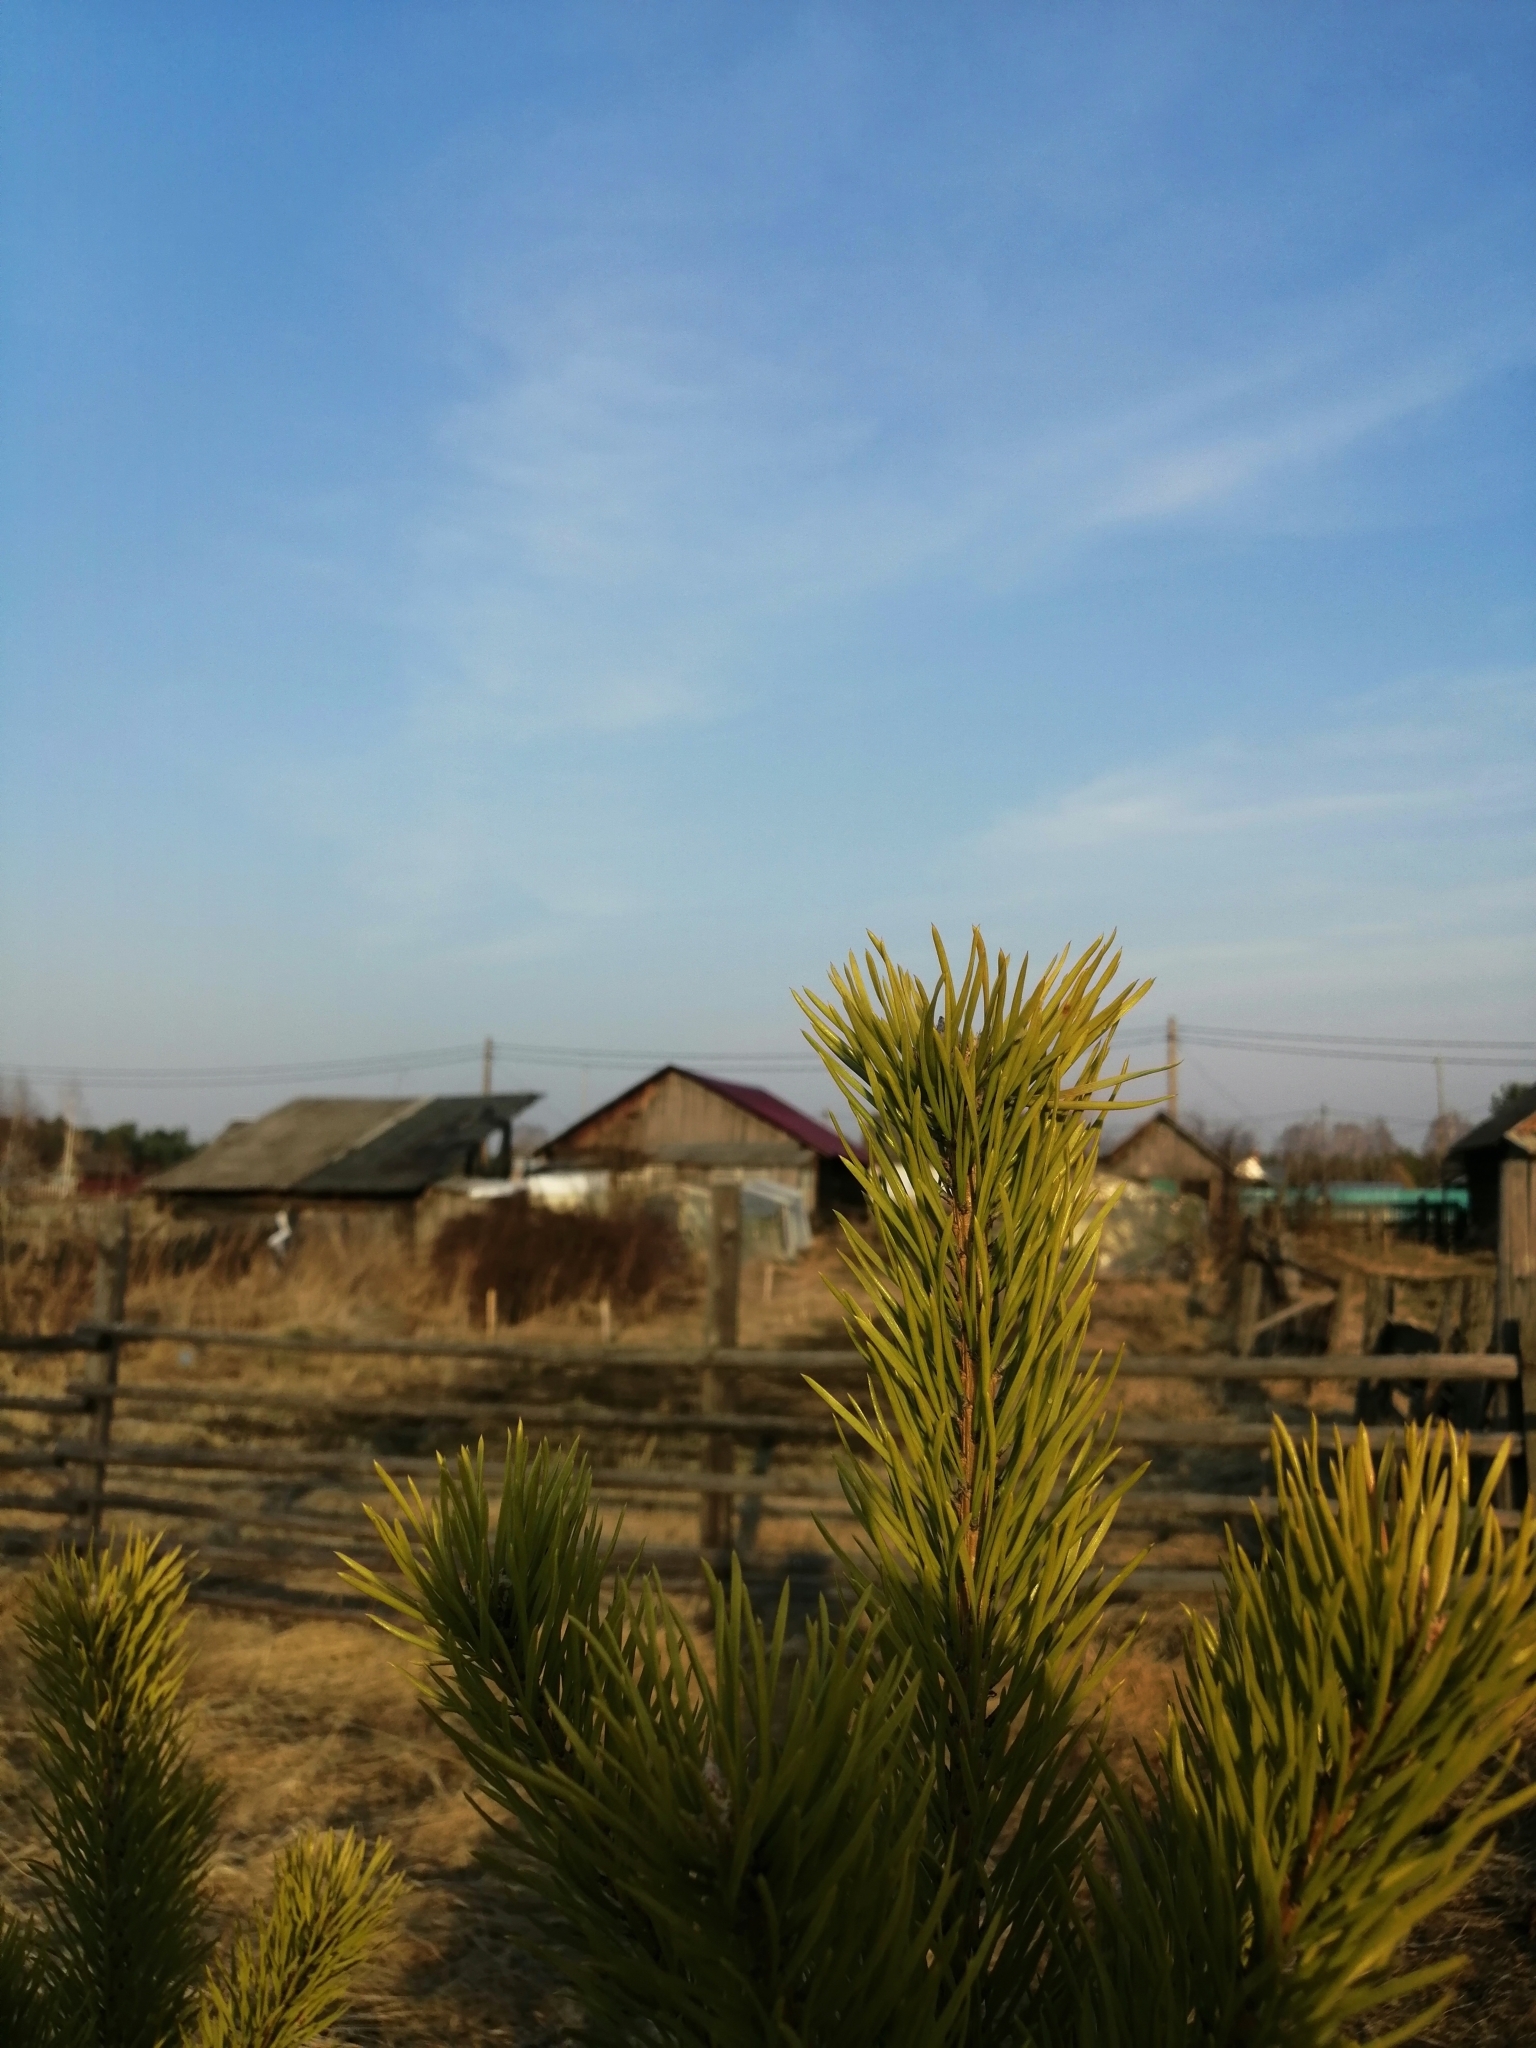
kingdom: Plantae
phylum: Tracheophyta
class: Pinopsida
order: Pinales
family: Pinaceae
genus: Pinus
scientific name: Pinus sylvestris
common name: Scots pine
